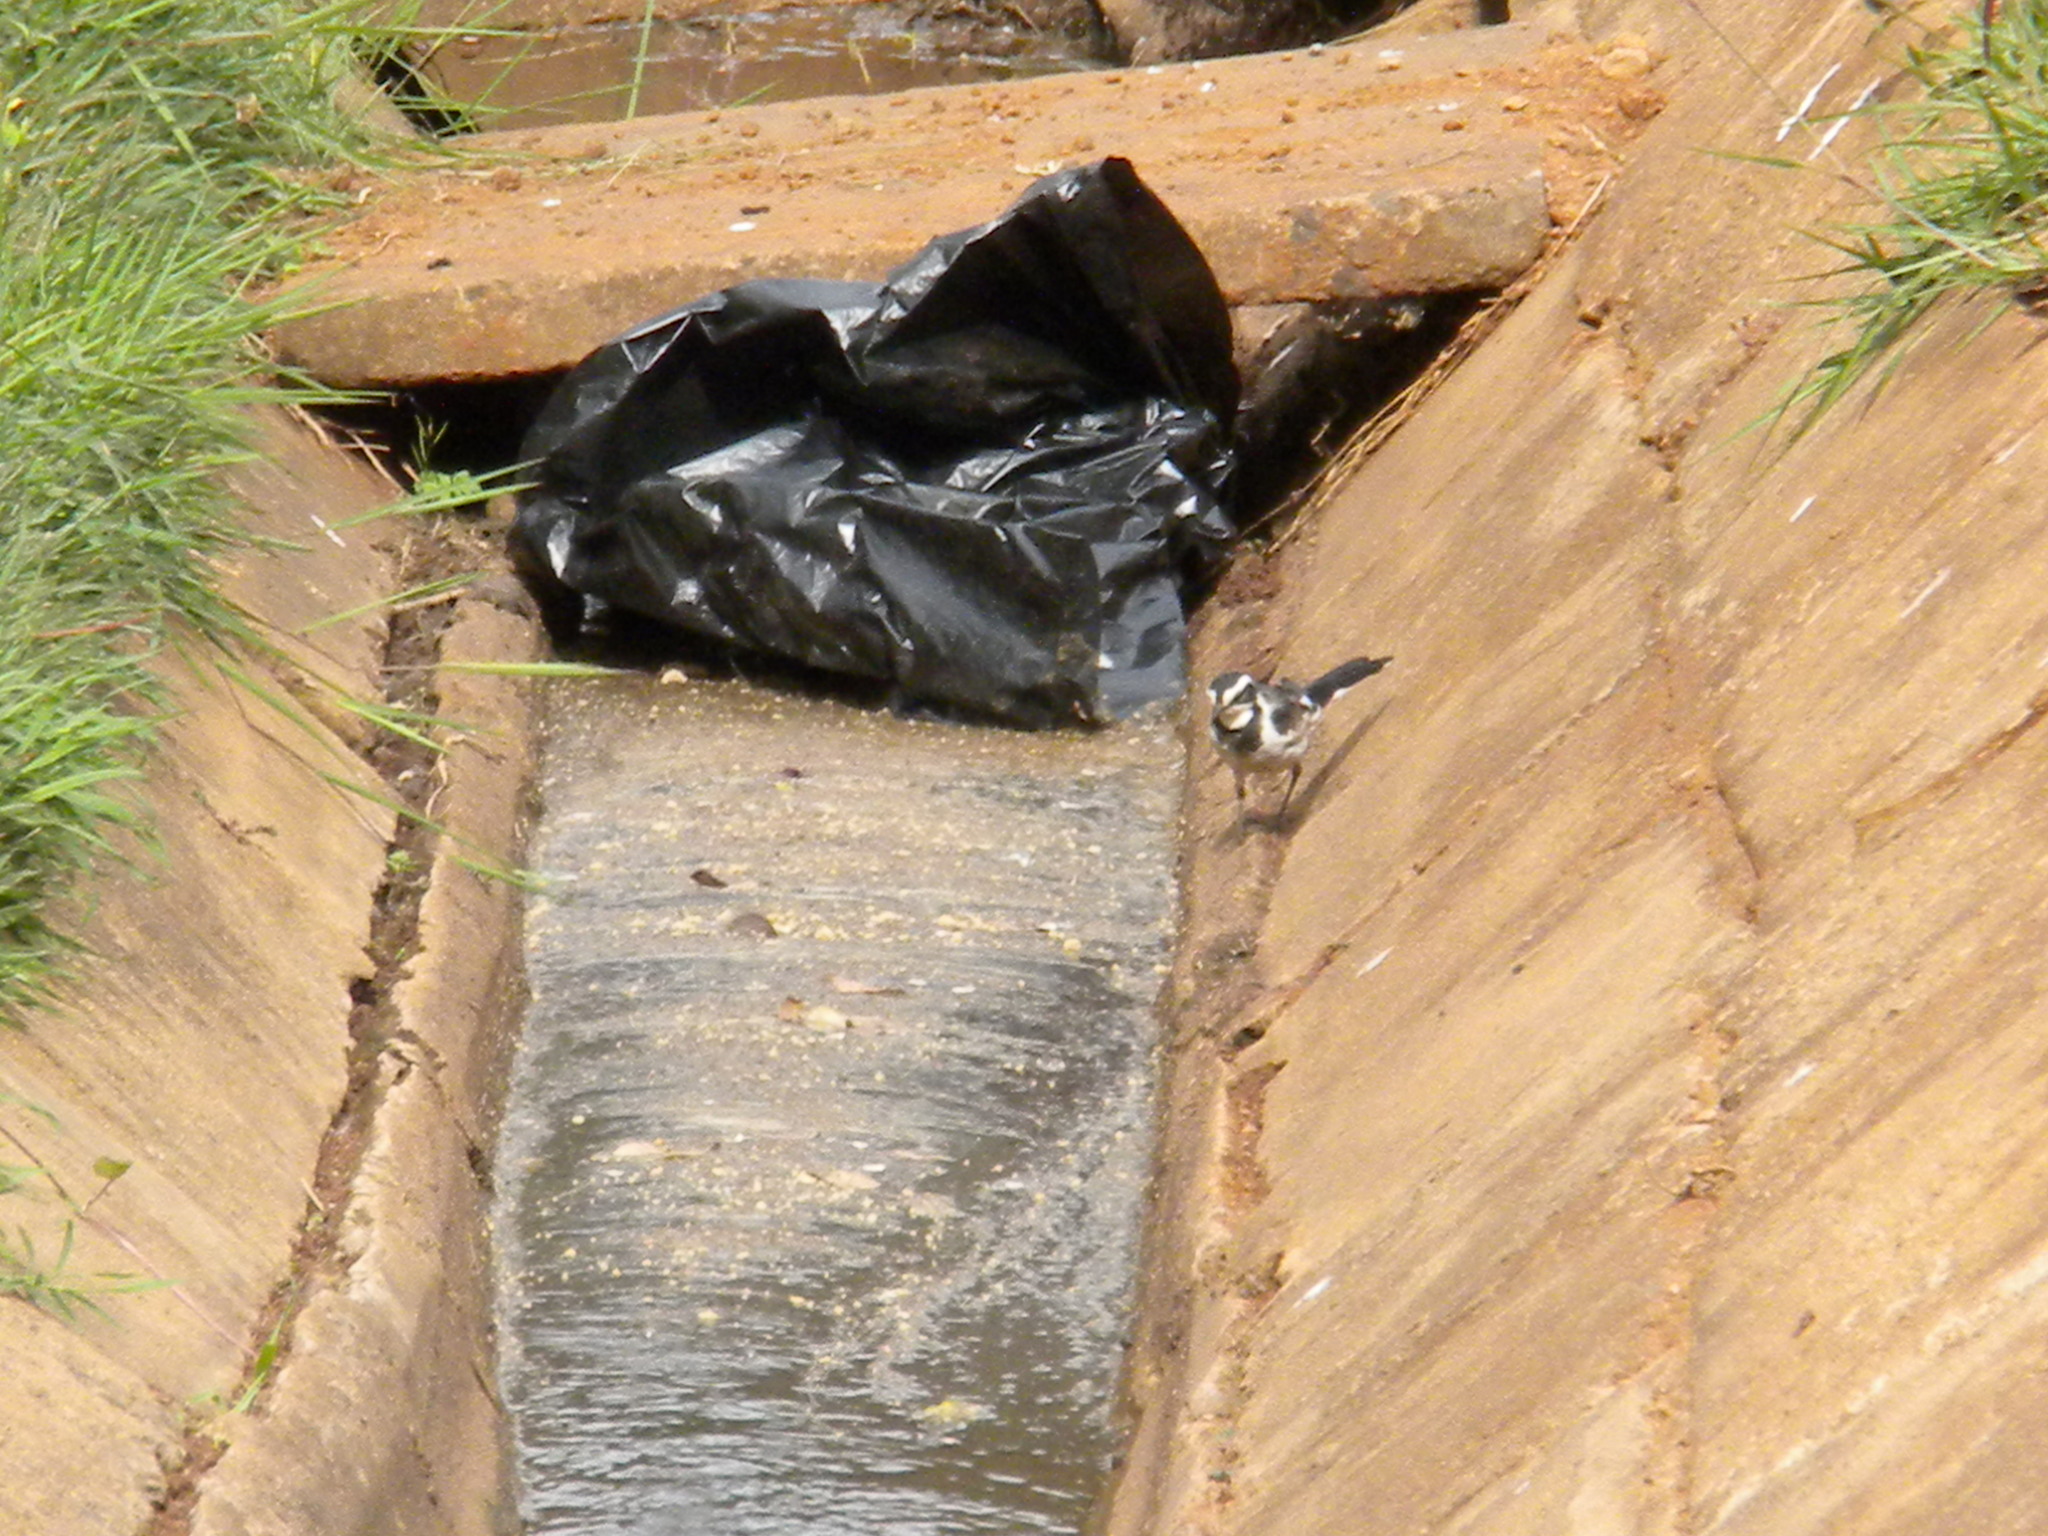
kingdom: Animalia
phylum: Chordata
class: Aves
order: Passeriformes
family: Motacillidae
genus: Motacilla
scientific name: Motacilla aguimp
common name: African pied wagtail
